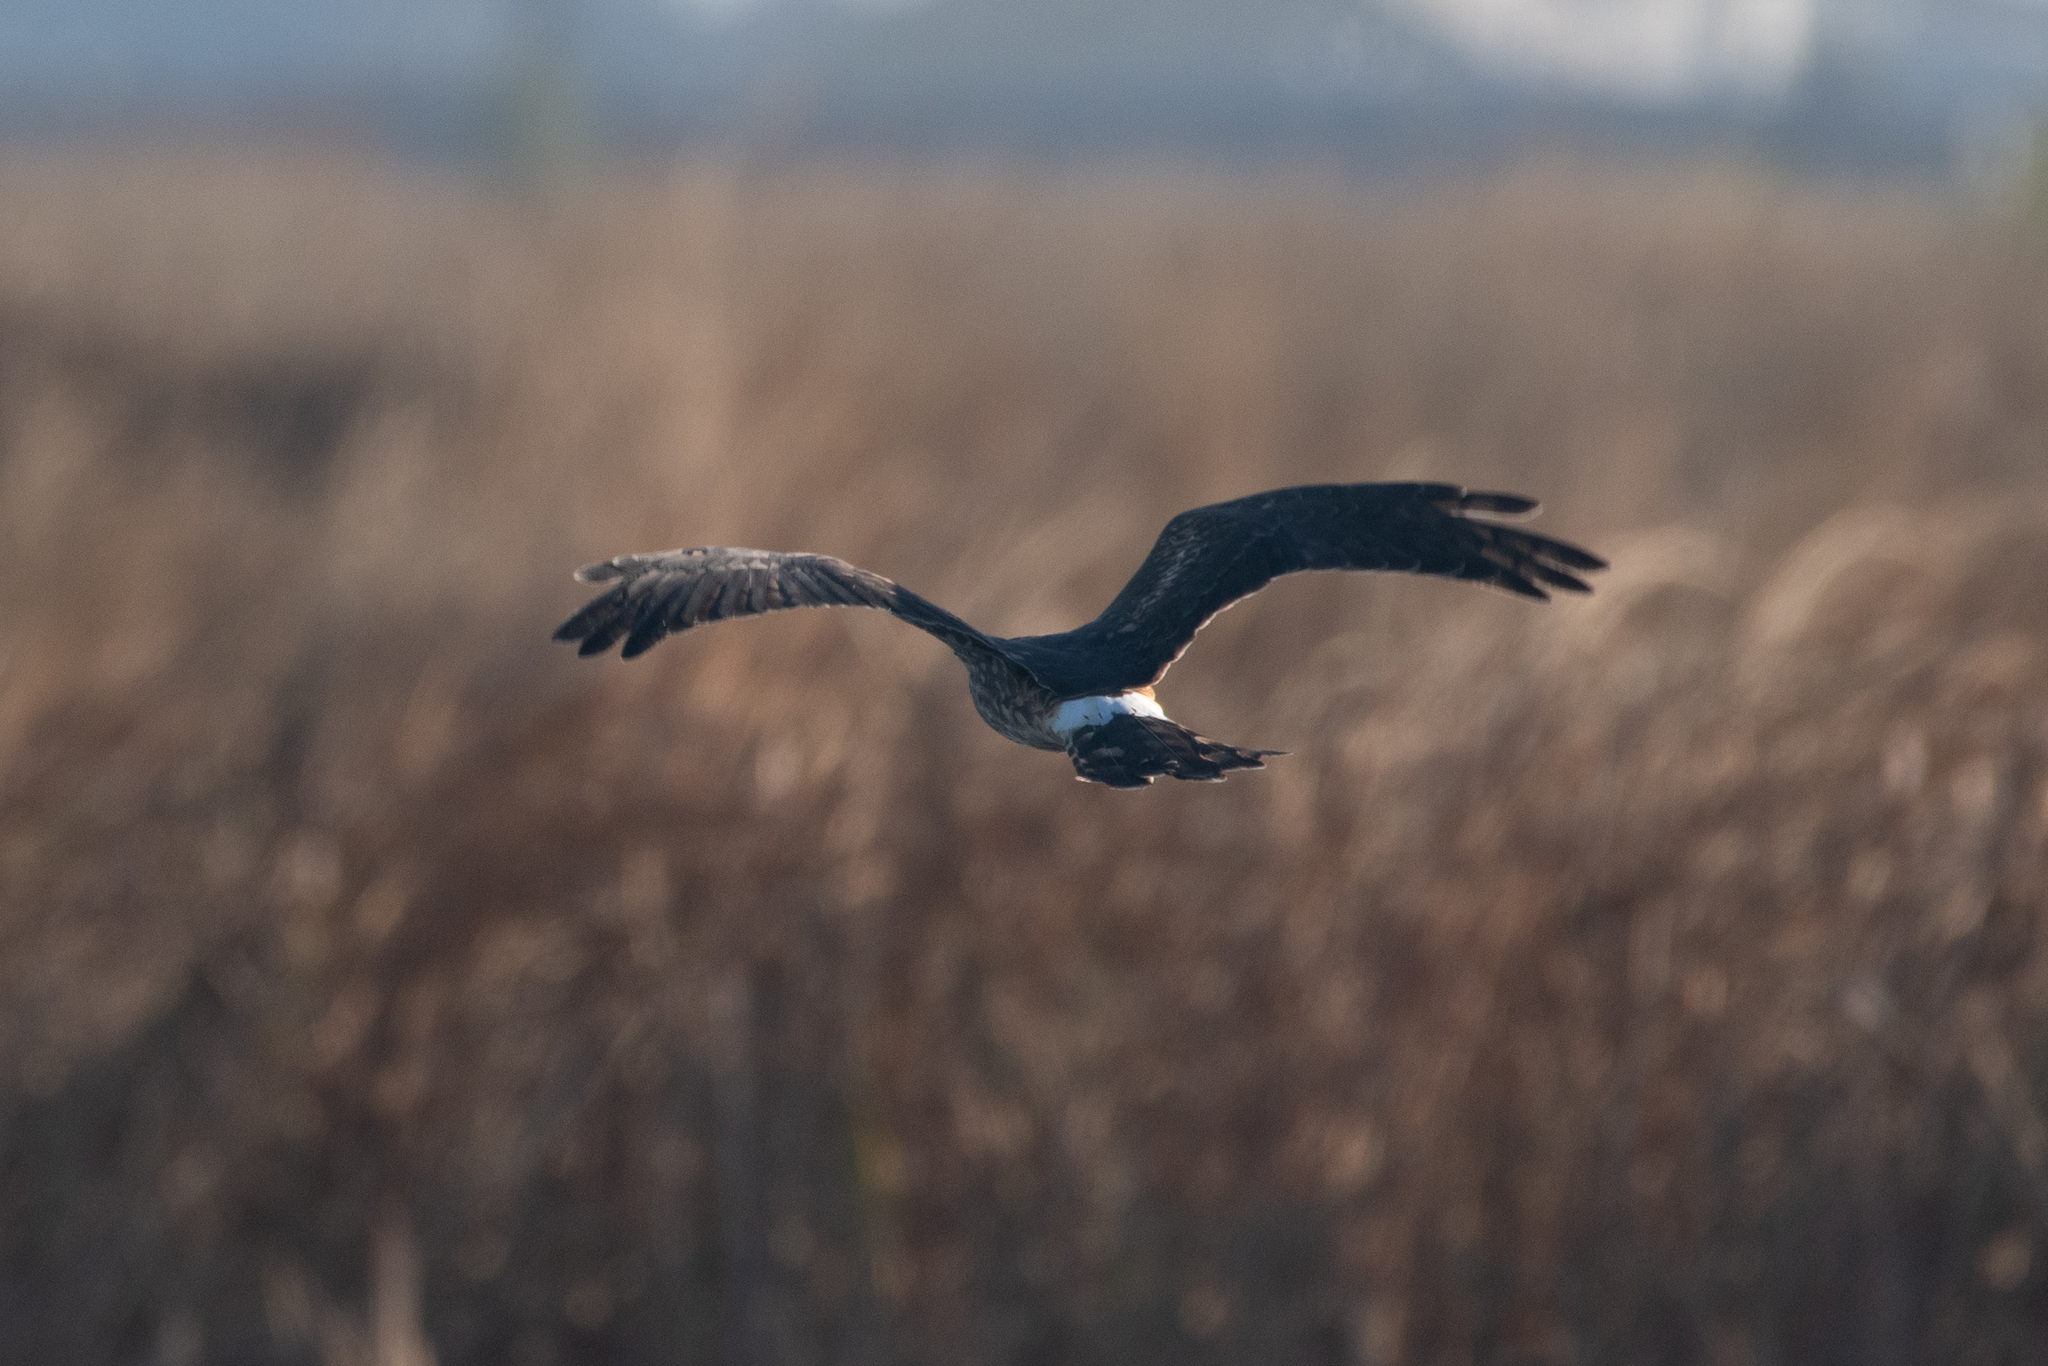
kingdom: Animalia
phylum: Chordata
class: Aves
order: Accipitriformes
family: Accipitridae
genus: Circus
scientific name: Circus cyaneus
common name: Hen harrier
